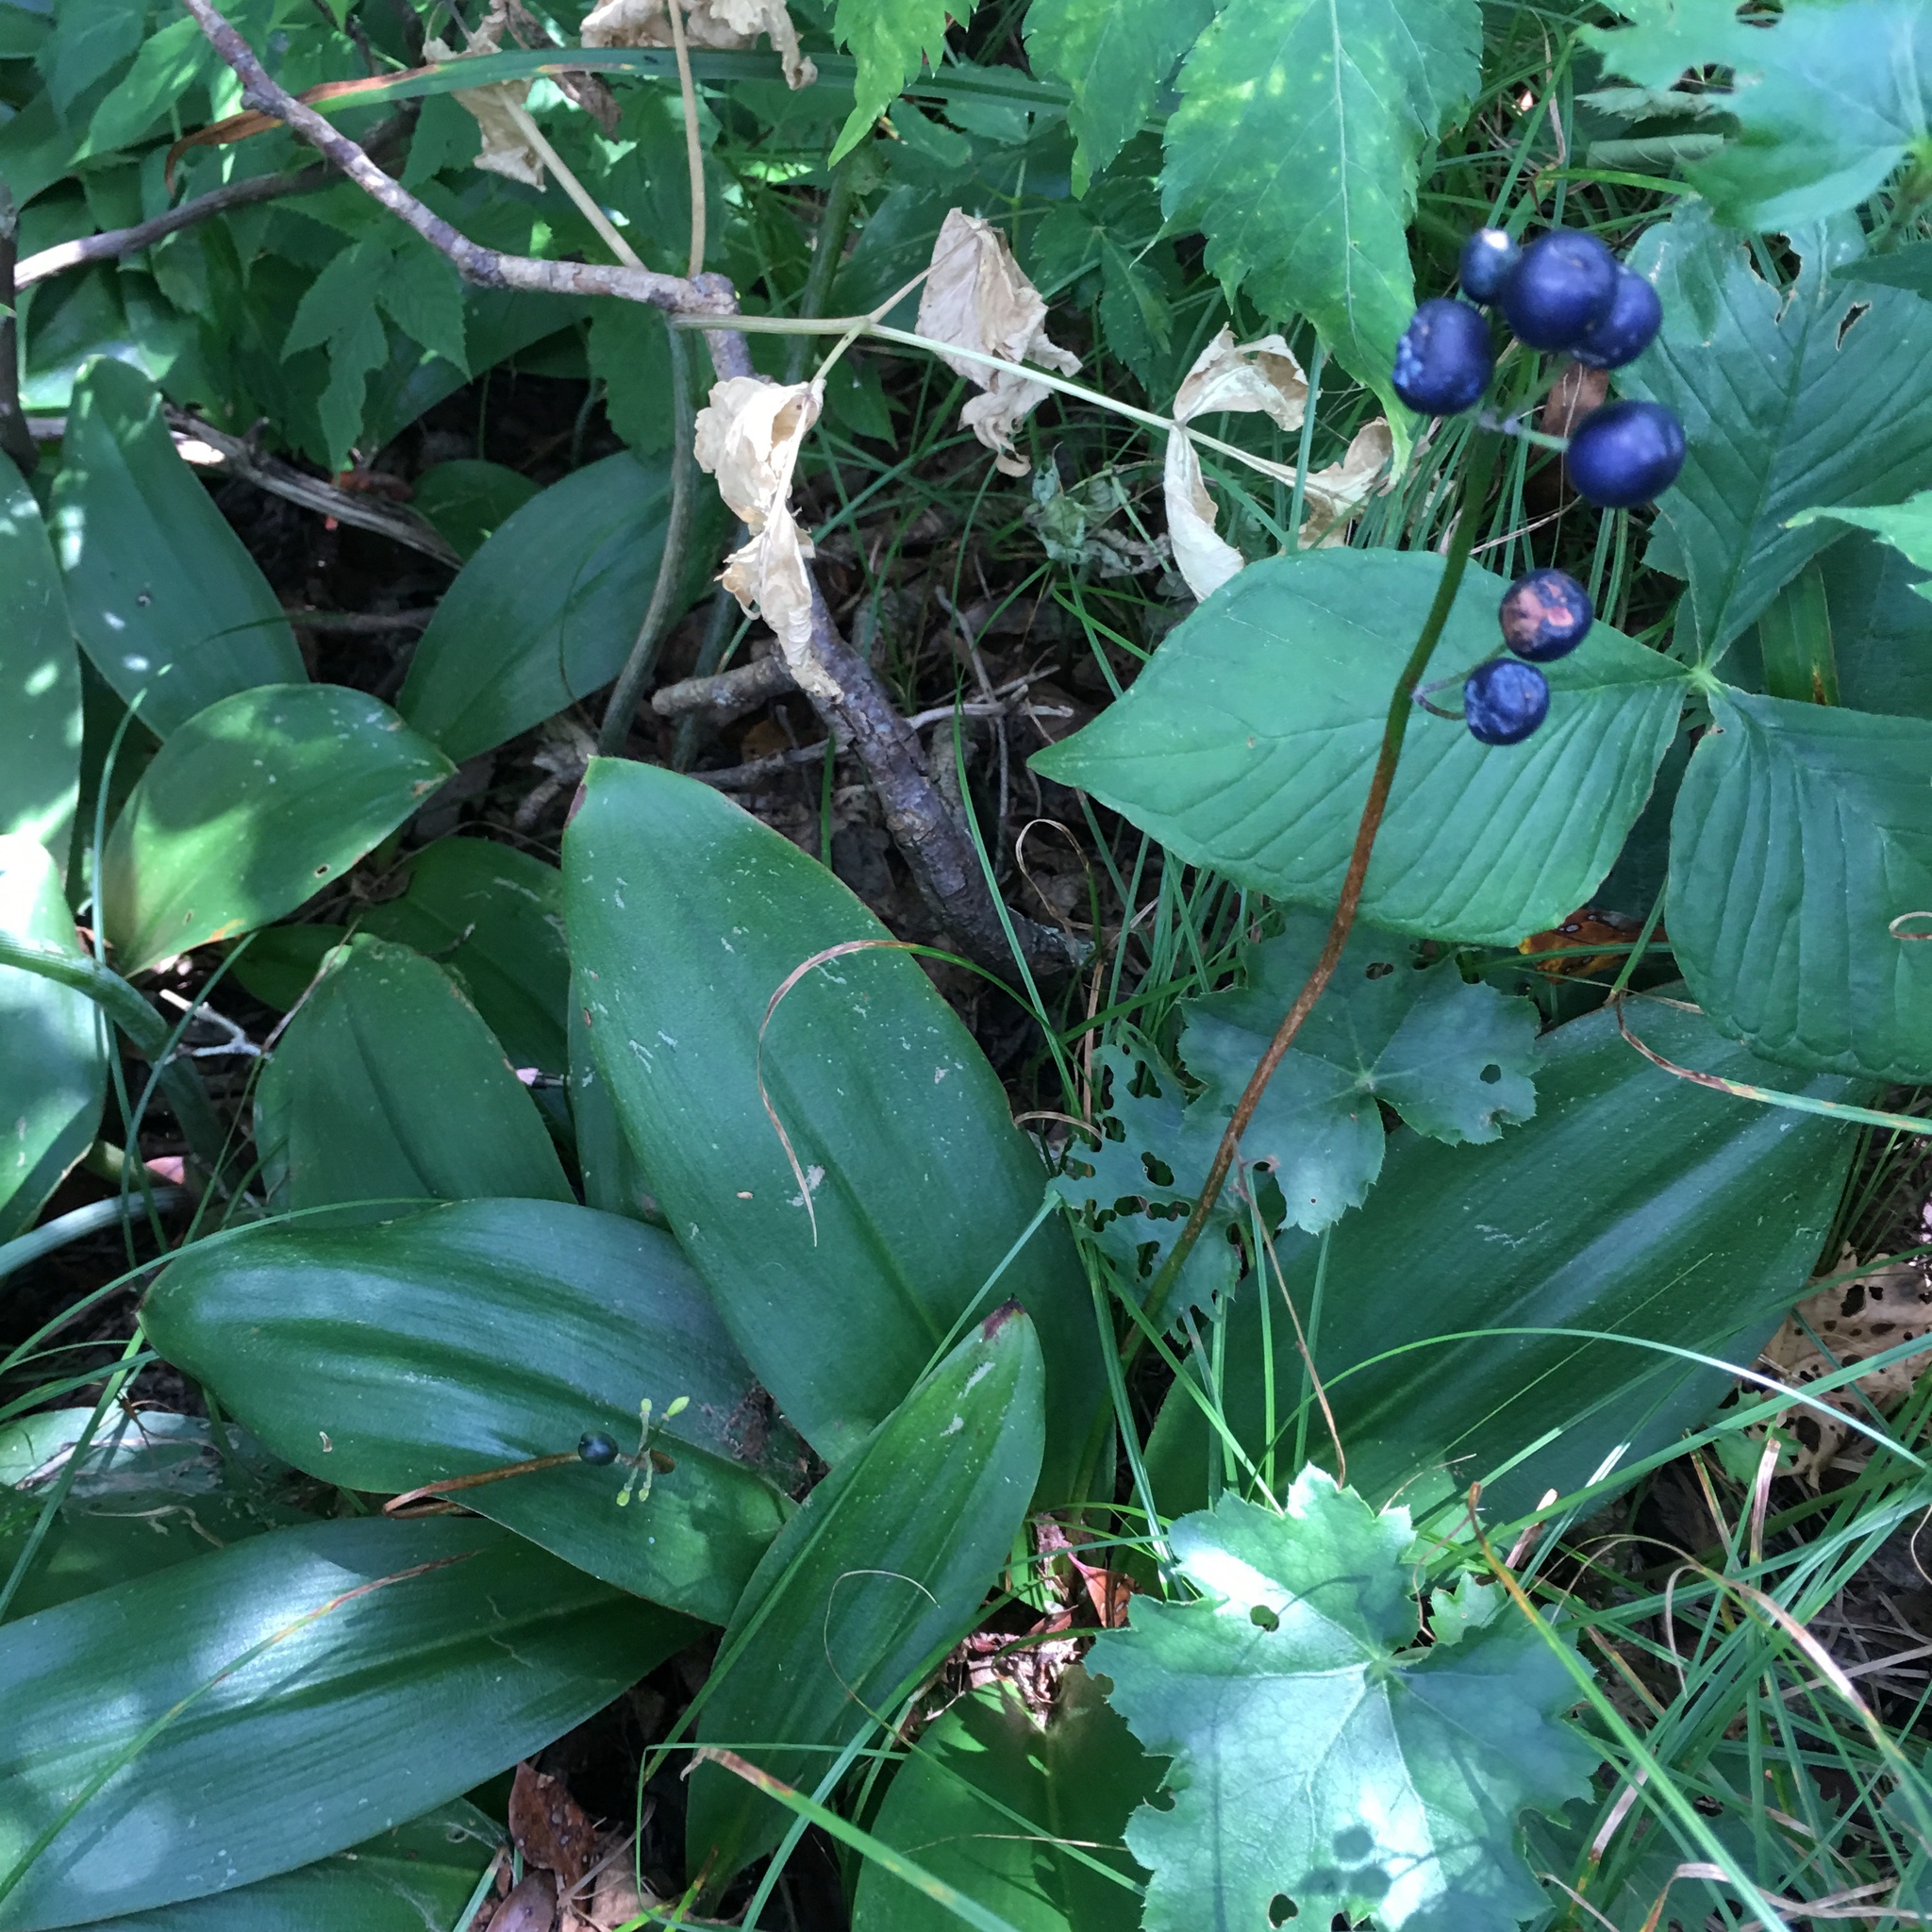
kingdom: Plantae
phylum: Tracheophyta
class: Liliopsida
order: Liliales
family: Liliaceae
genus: Clintonia
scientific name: Clintonia borealis
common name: Yellow clintonia
